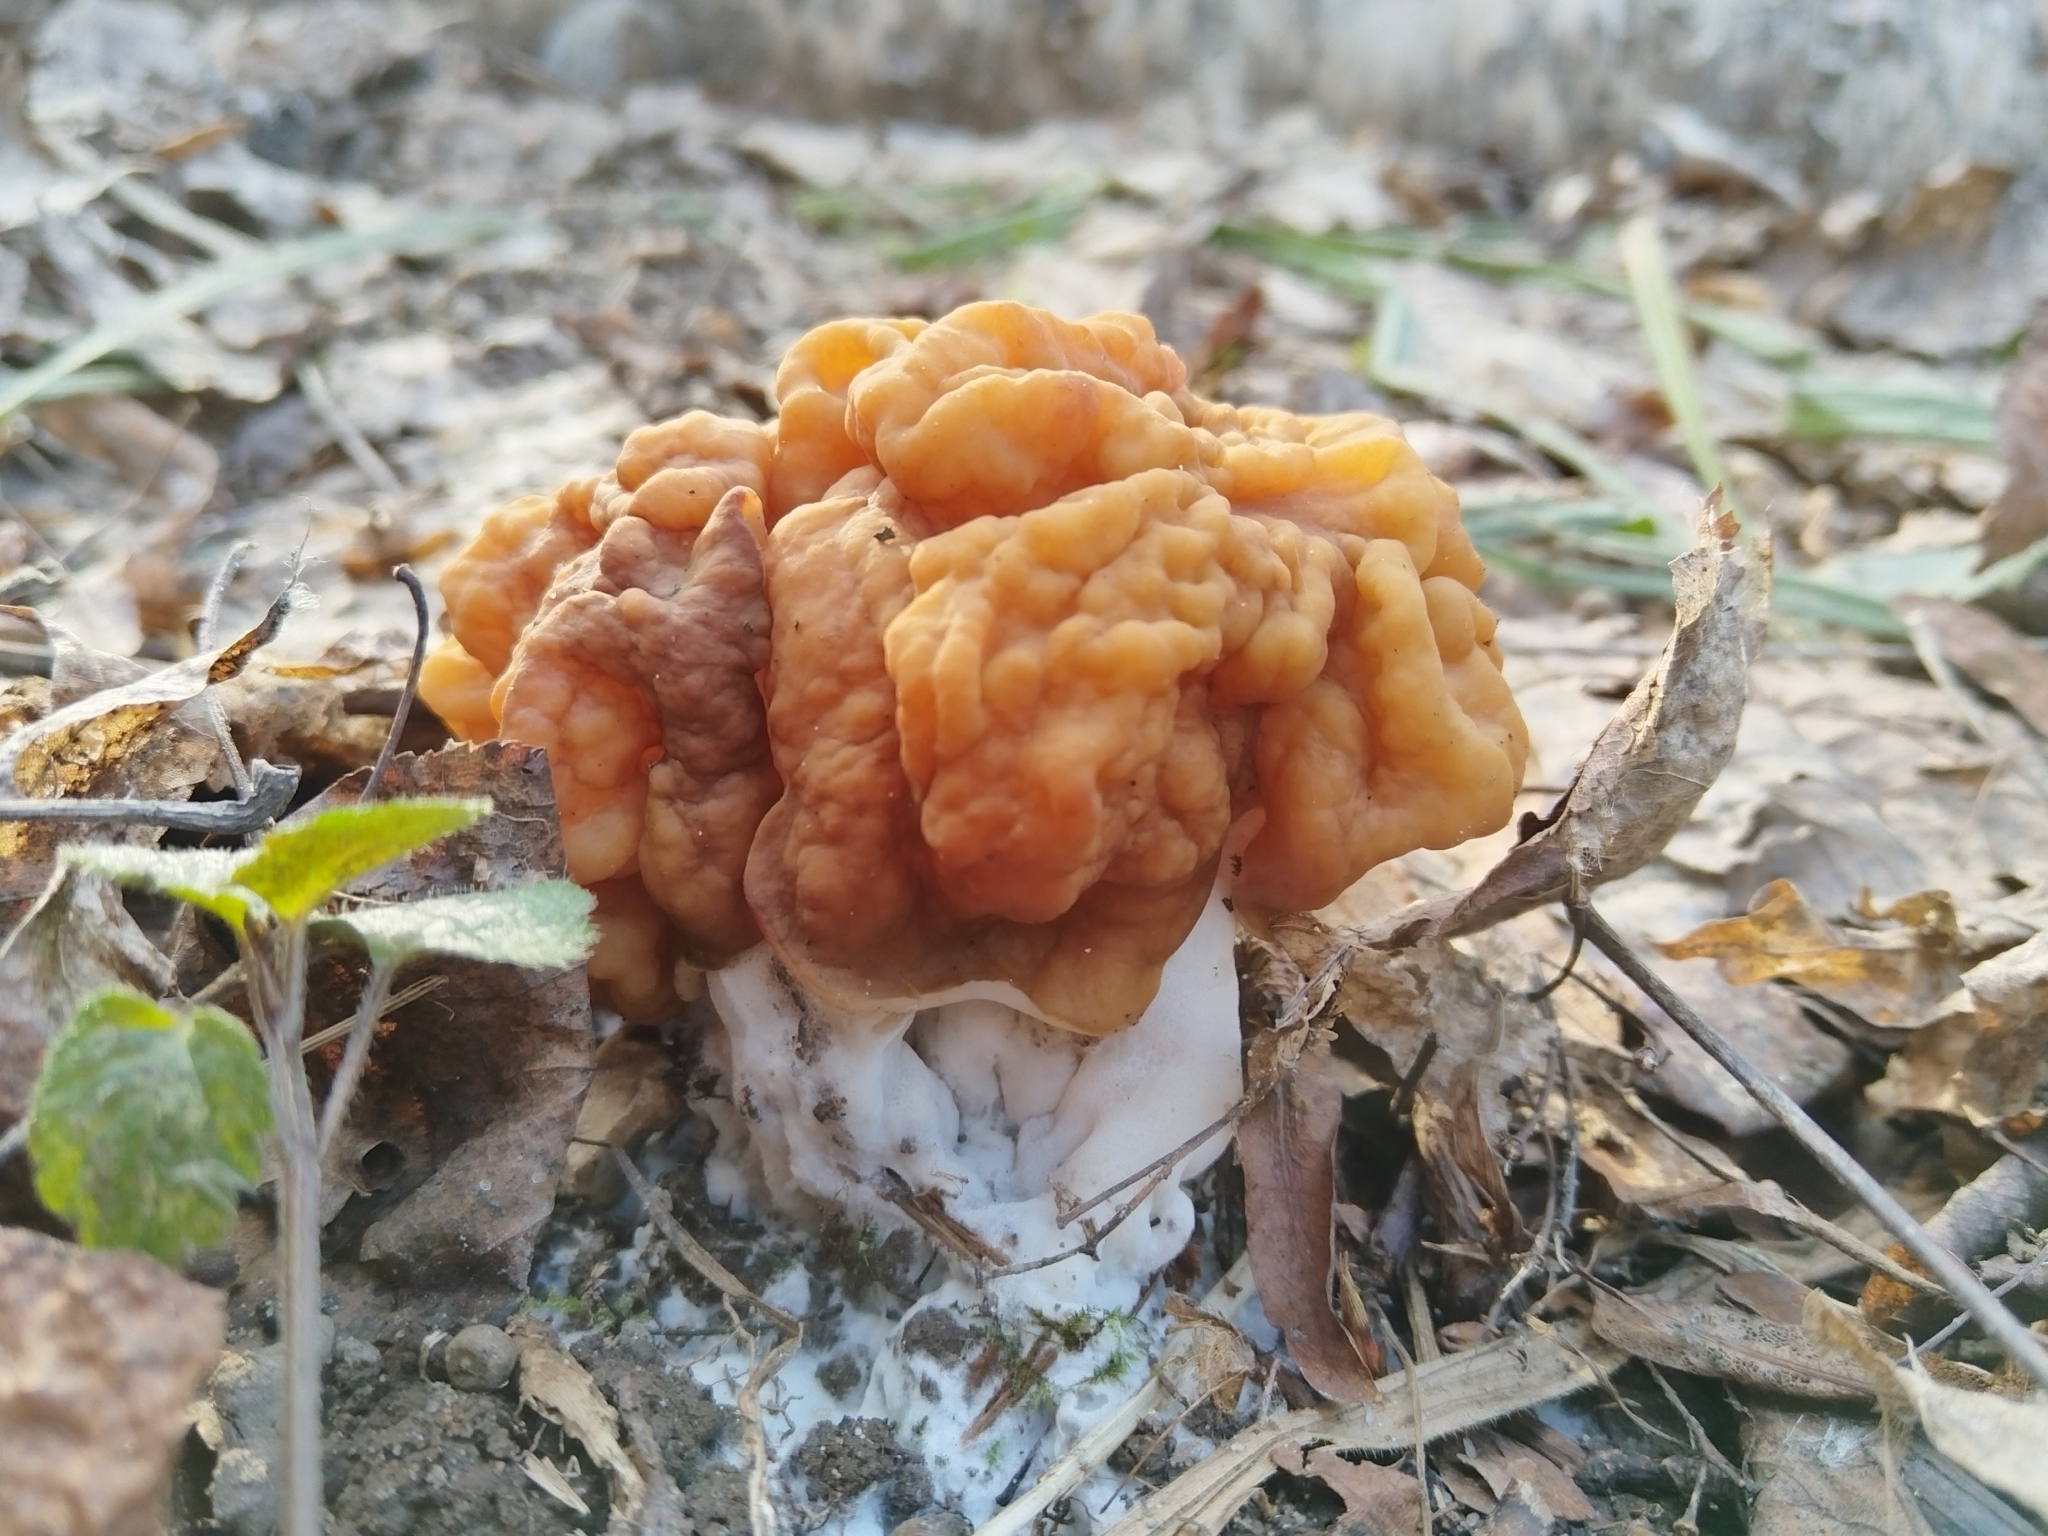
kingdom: Fungi
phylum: Ascomycota
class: Pezizomycetes
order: Pezizales
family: Discinaceae
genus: Gyromitra
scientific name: Gyromitra gigas
